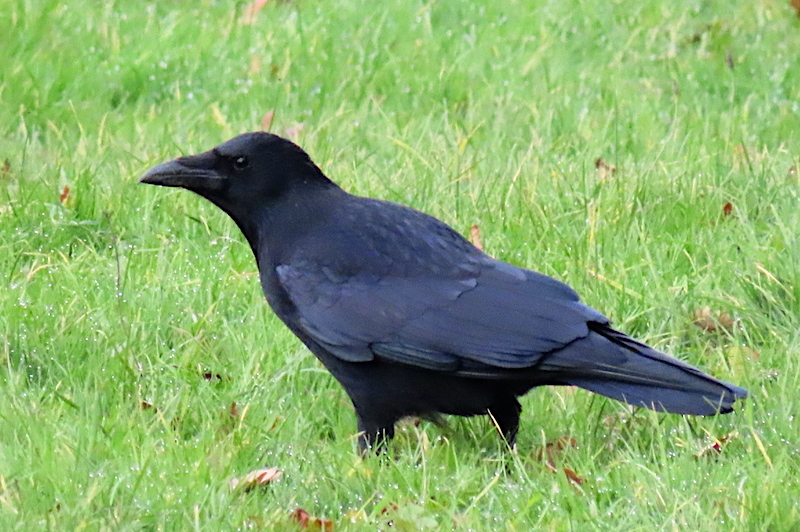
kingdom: Animalia
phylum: Chordata
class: Aves
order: Passeriformes
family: Corvidae
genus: Corvus
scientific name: Corvus corone
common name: Carrion crow
